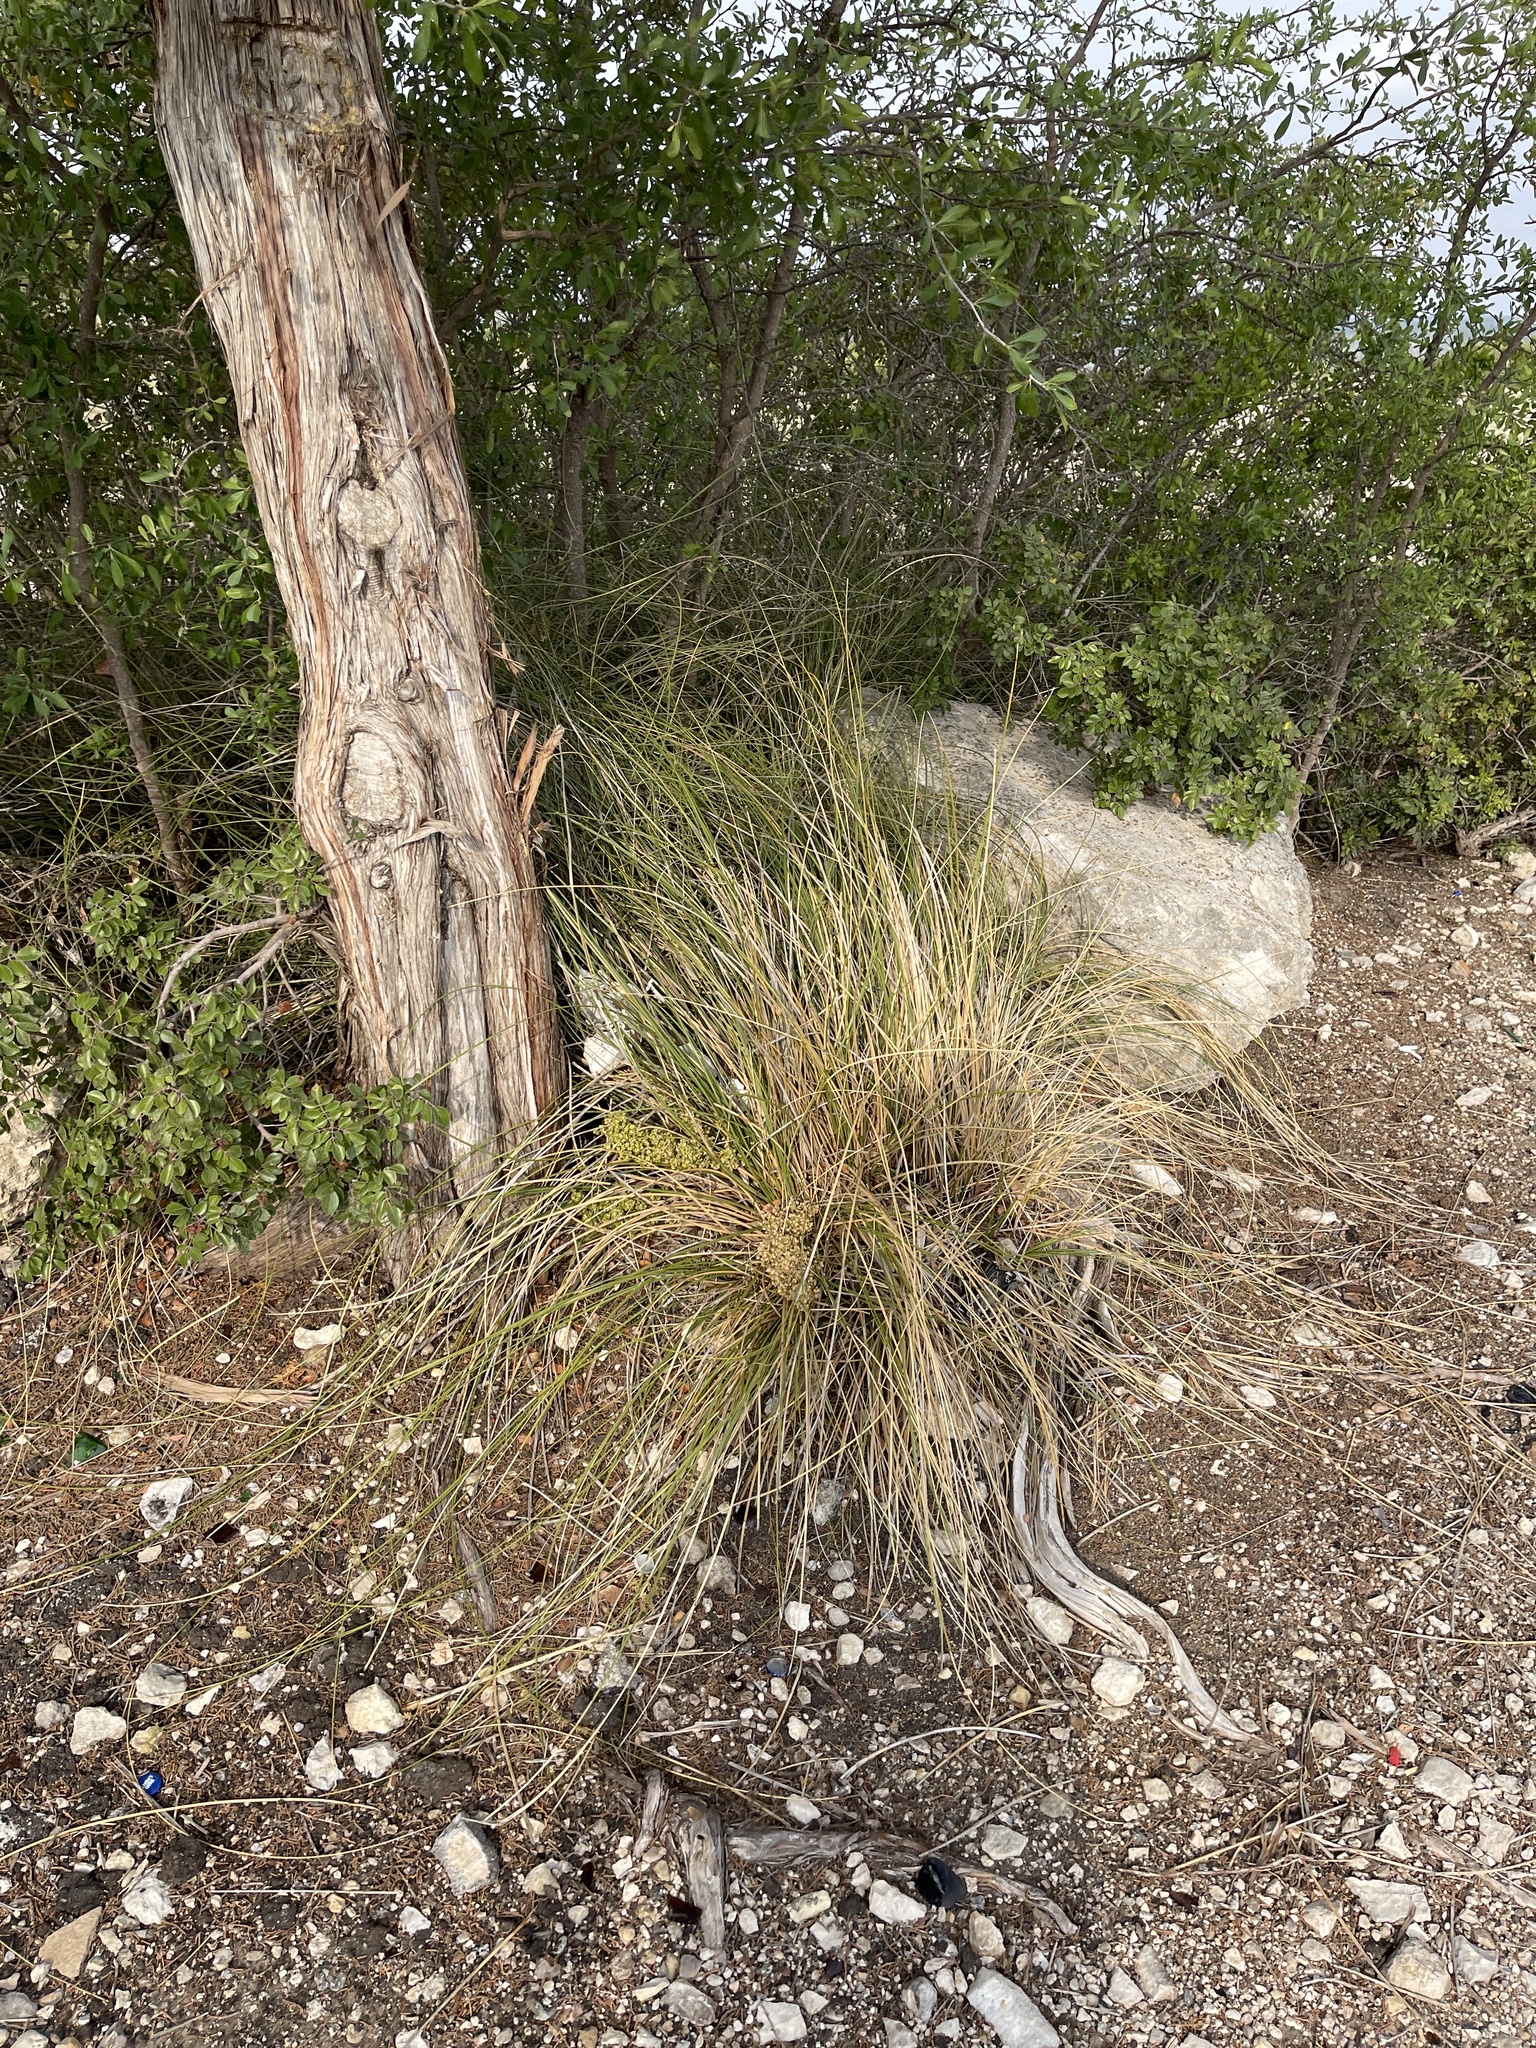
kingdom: Plantae
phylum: Tracheophyta
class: Liliopsida
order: Asparagales
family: Asparagaceae
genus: Nolina
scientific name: Nolina texana
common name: Texas sacahuiste
